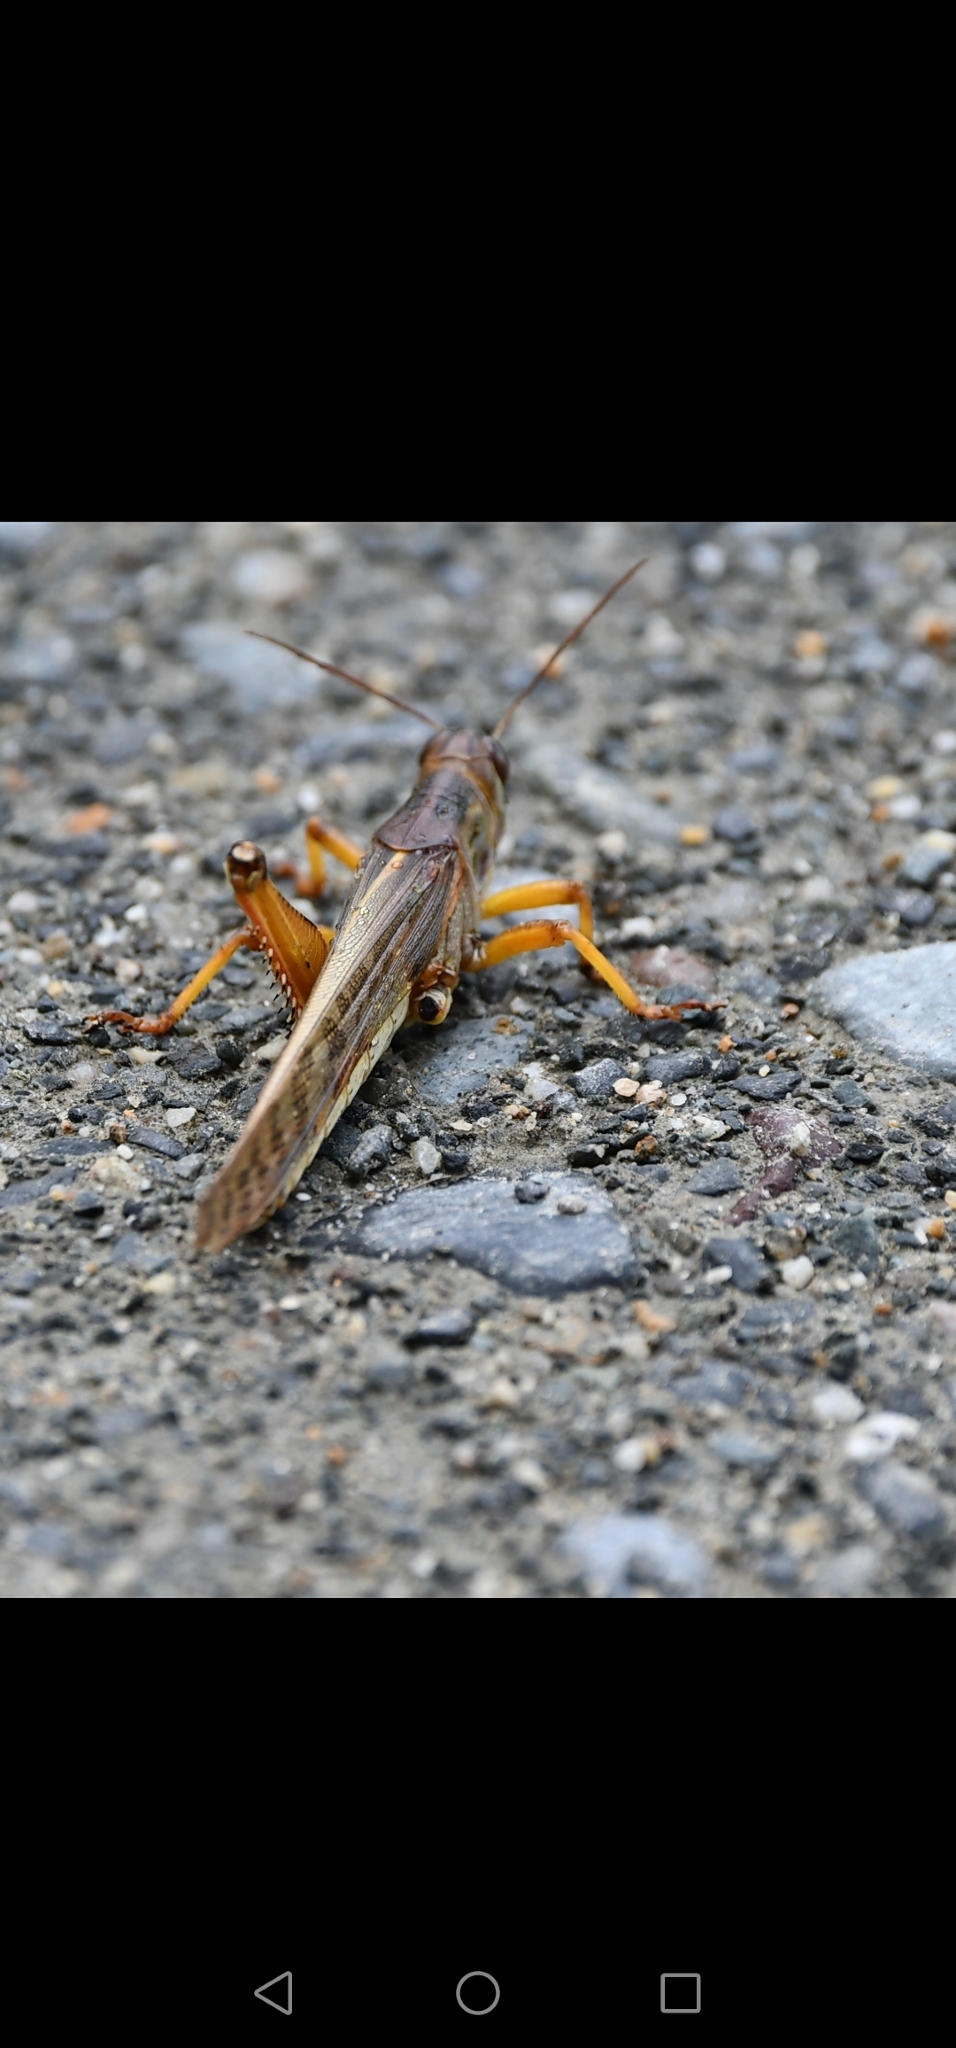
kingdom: Animalia
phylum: Arthropoda
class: Insecta
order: Orthoptera
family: Acrididae
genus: Schistocerca
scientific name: Schistocerca piceifrons
